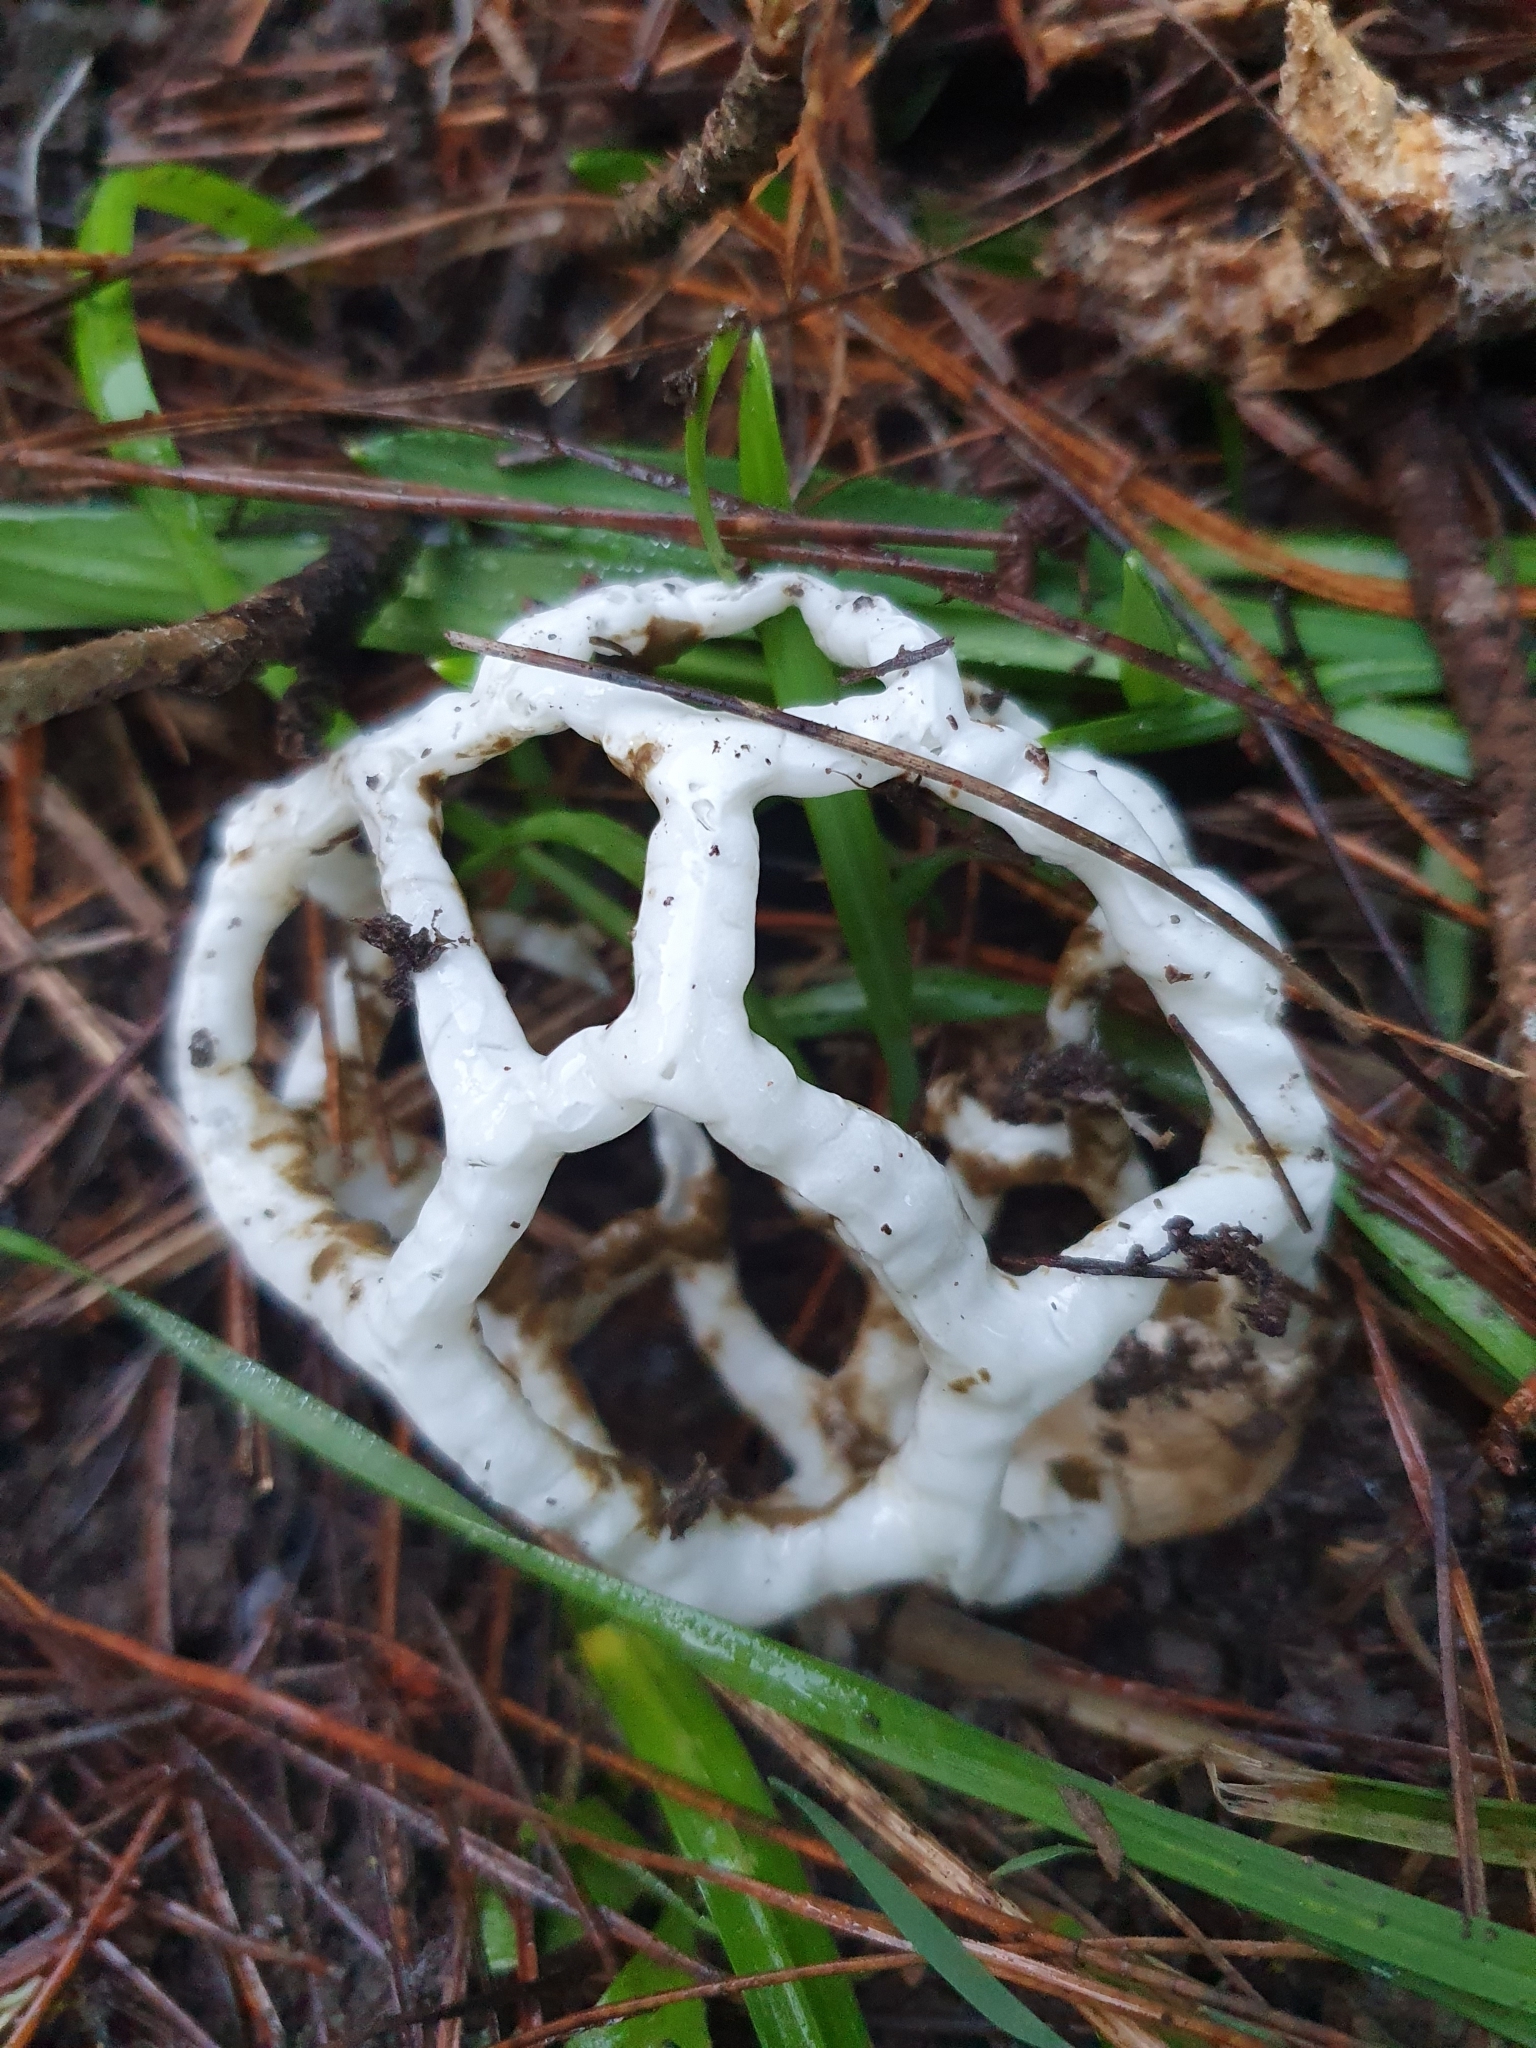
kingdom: Fungi
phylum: Basidiomycota
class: Agaricomycetes
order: Phallales
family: Phallaceae
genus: Ileodictyon
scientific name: Ileodictyon cibarium
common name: Basket fungus
